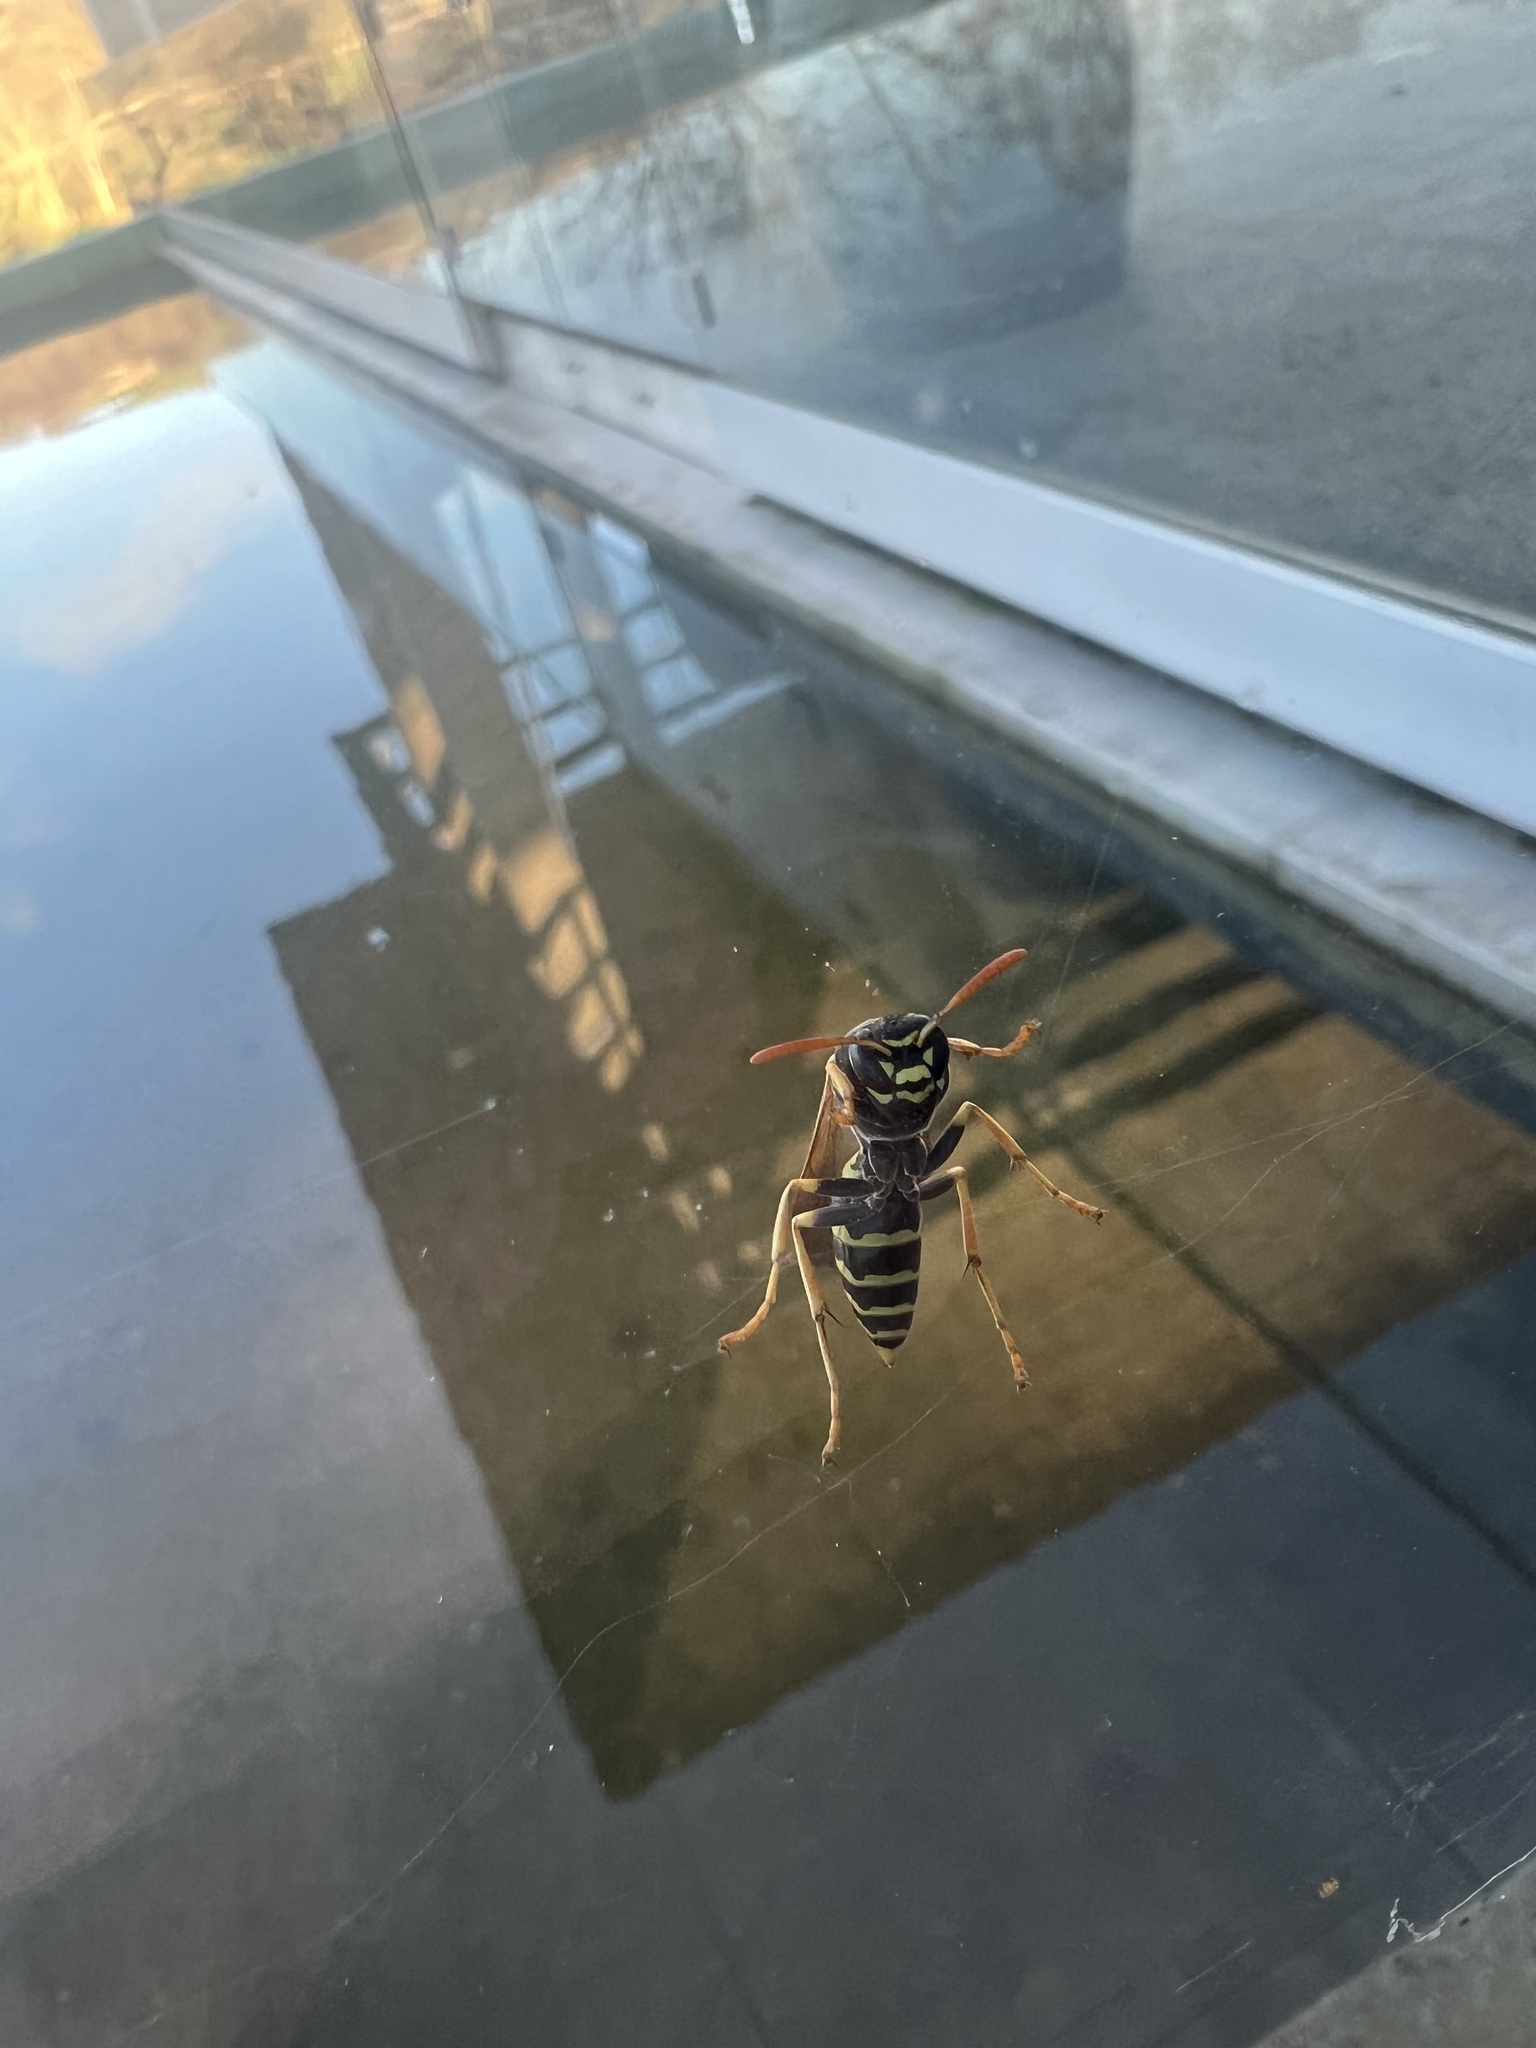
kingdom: Animalia
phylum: Arthropoda
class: Insecta
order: Hymenoptera
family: Eumenidae
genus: Polistes
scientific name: Polistes nimpha
